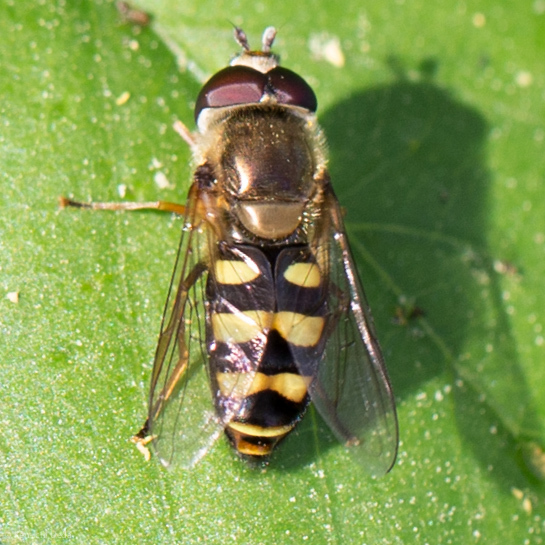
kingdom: Animalia
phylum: Arthropoda
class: Insecta
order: Diptera
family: Syrphidae
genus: Eupeodes
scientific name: Eupeodes fumipennis
